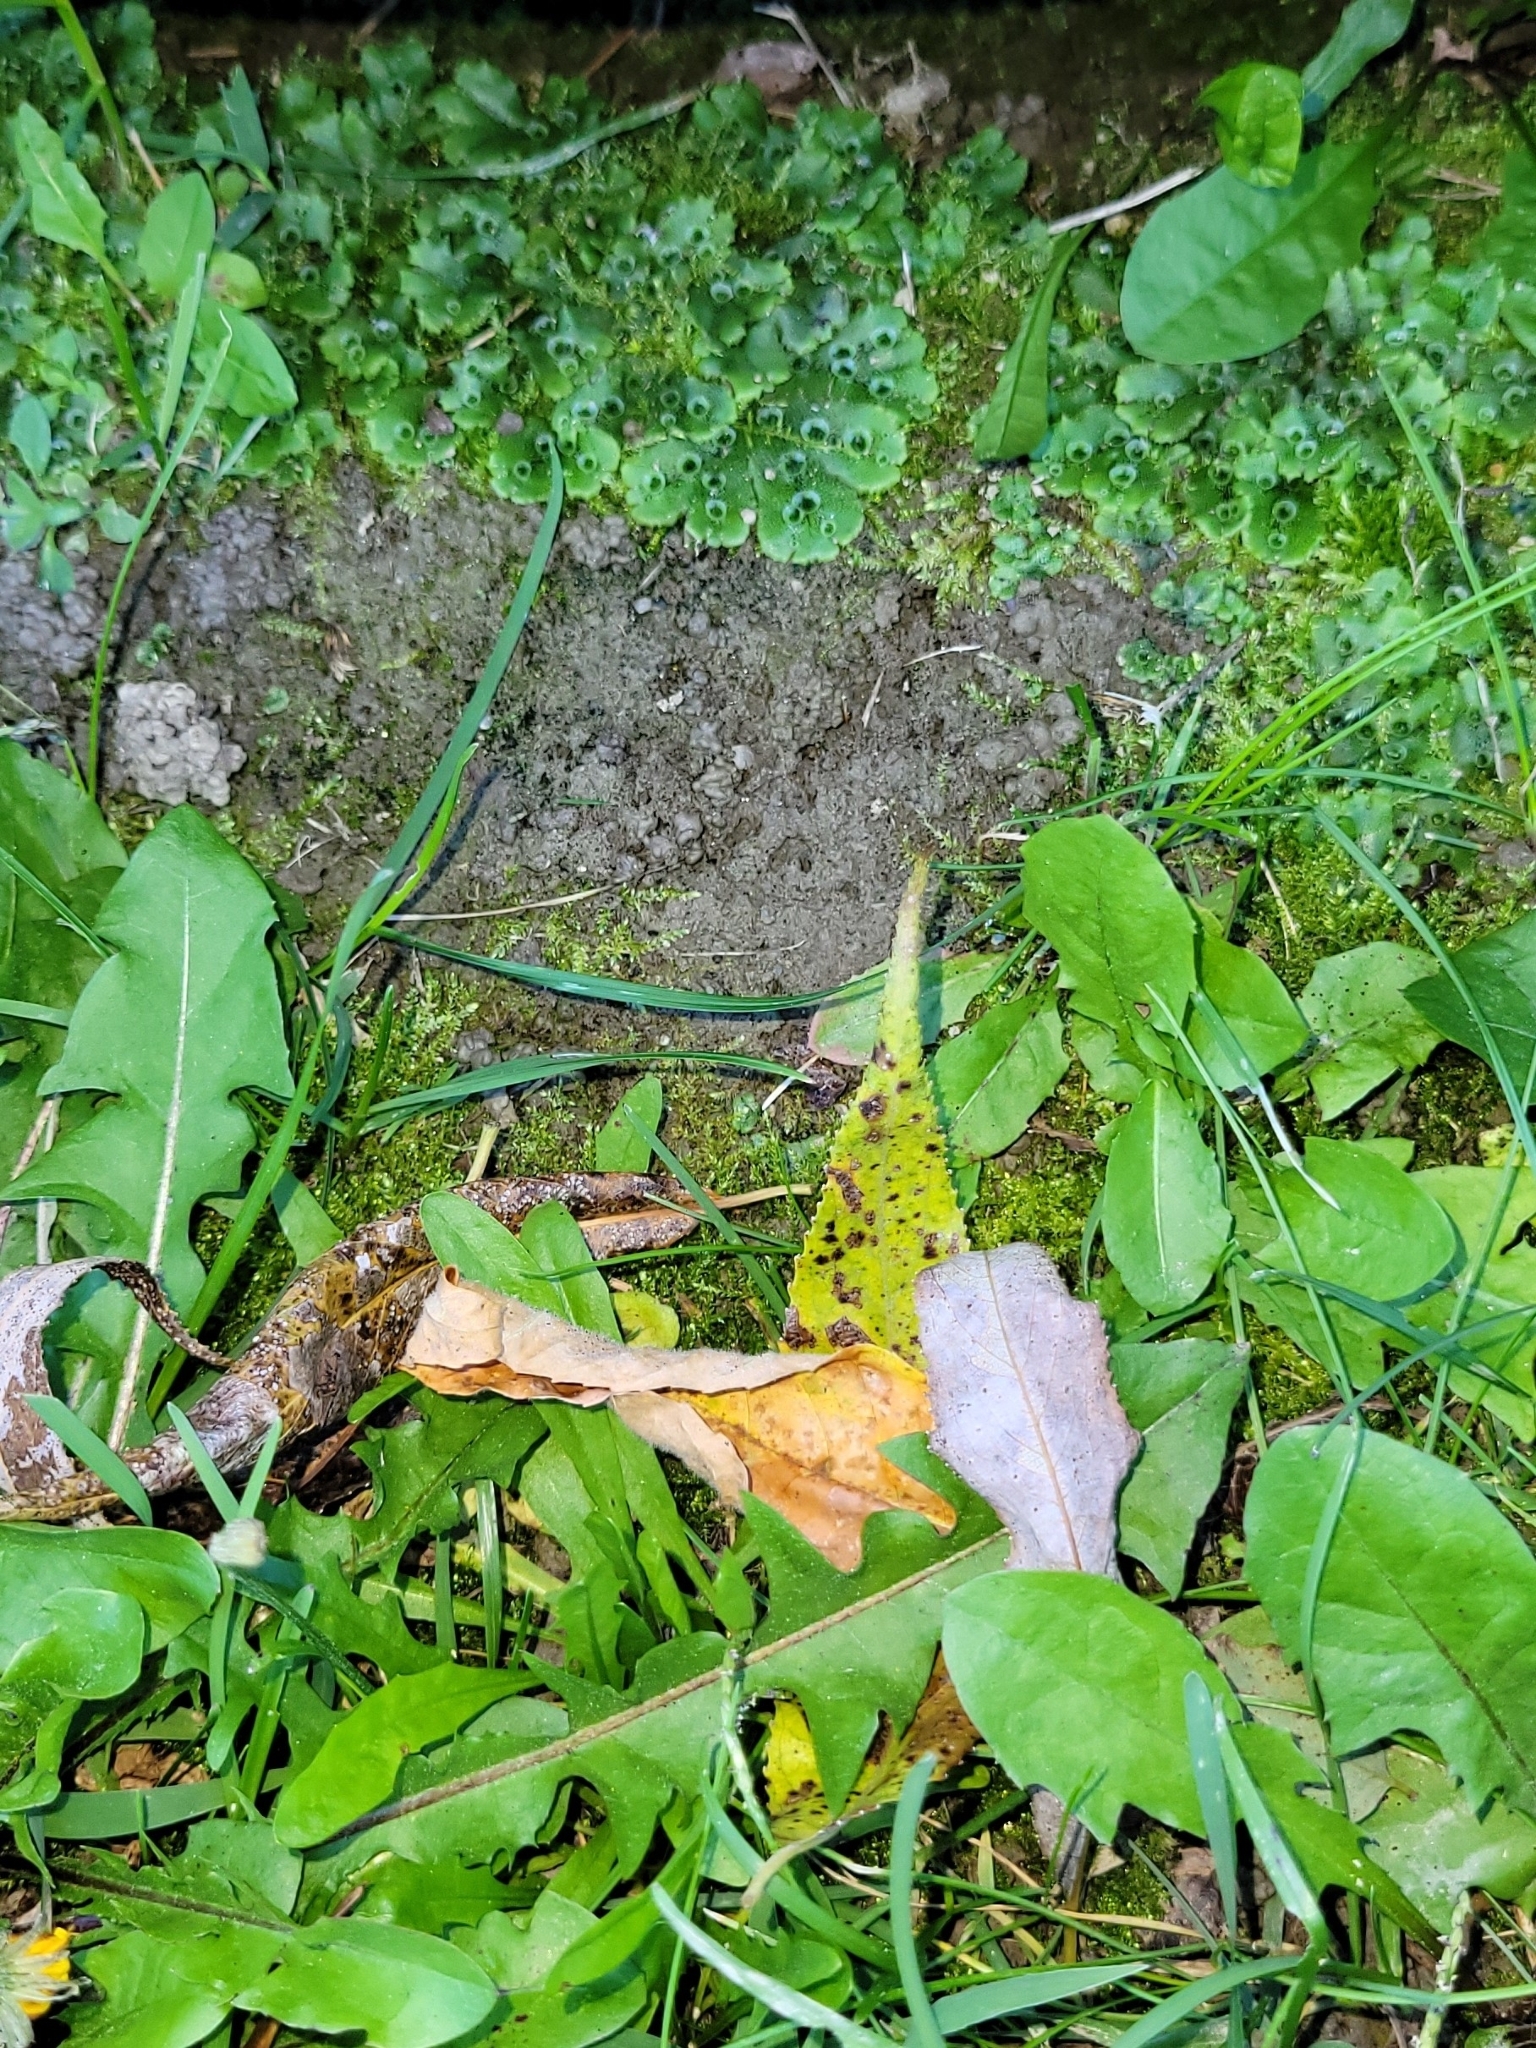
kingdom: Plantae
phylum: Marchantiophyta
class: Marchantiopsida
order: Marchantiales
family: Marchantiaceae
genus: Marchantia
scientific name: Marchantia polymorpha
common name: Common liverwort
